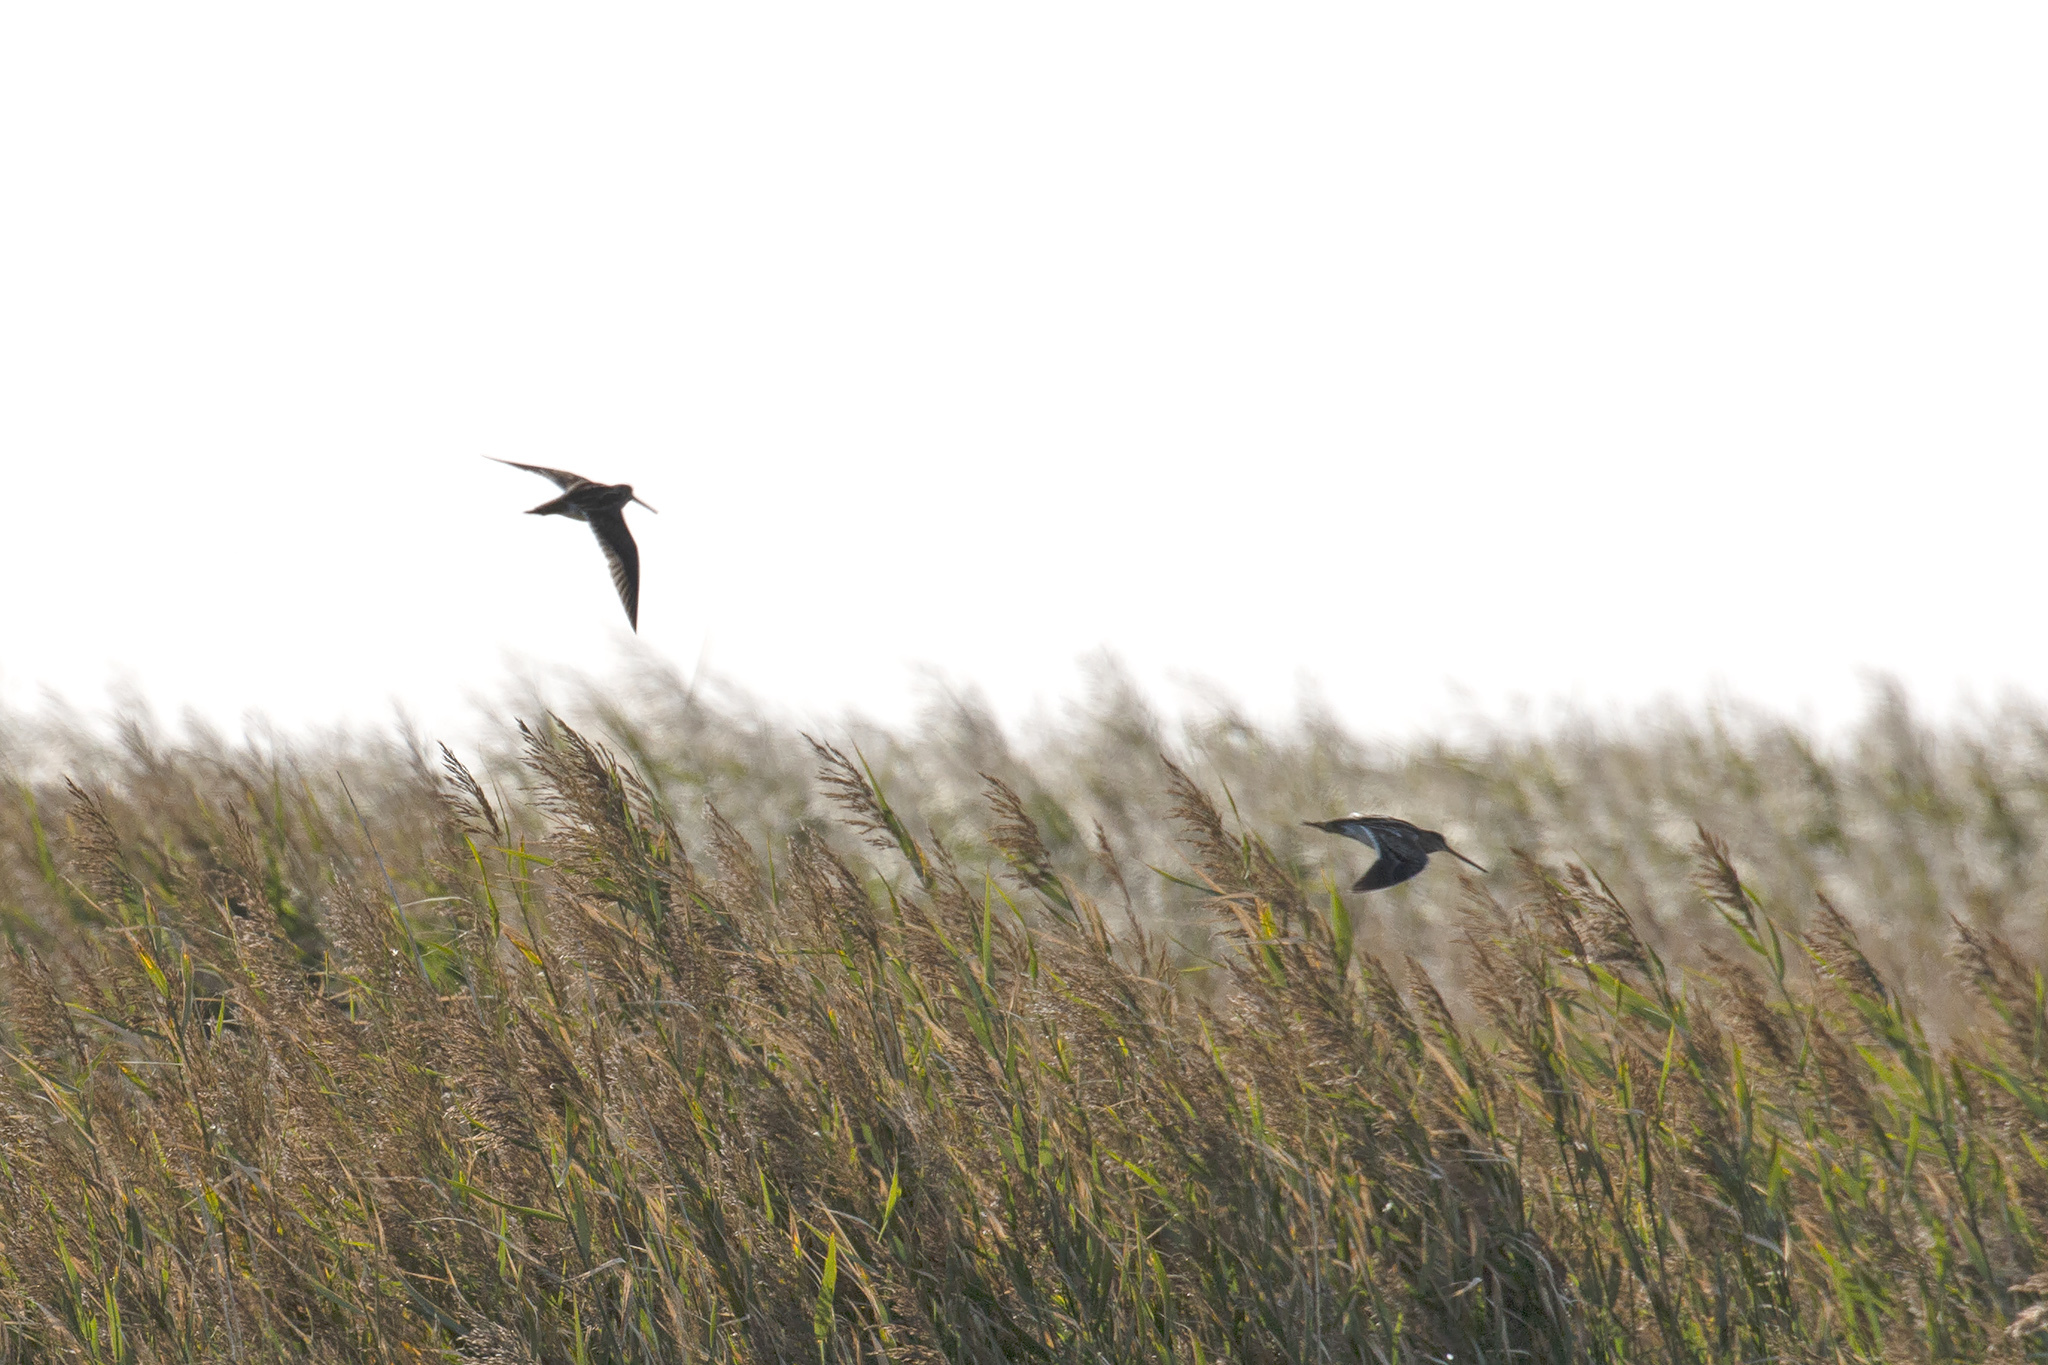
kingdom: Animalia
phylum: Chordata
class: Aves
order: Charadriiformes
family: Scolopacidae
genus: Gallinago
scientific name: Gallinago gallinago
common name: Common snipe
